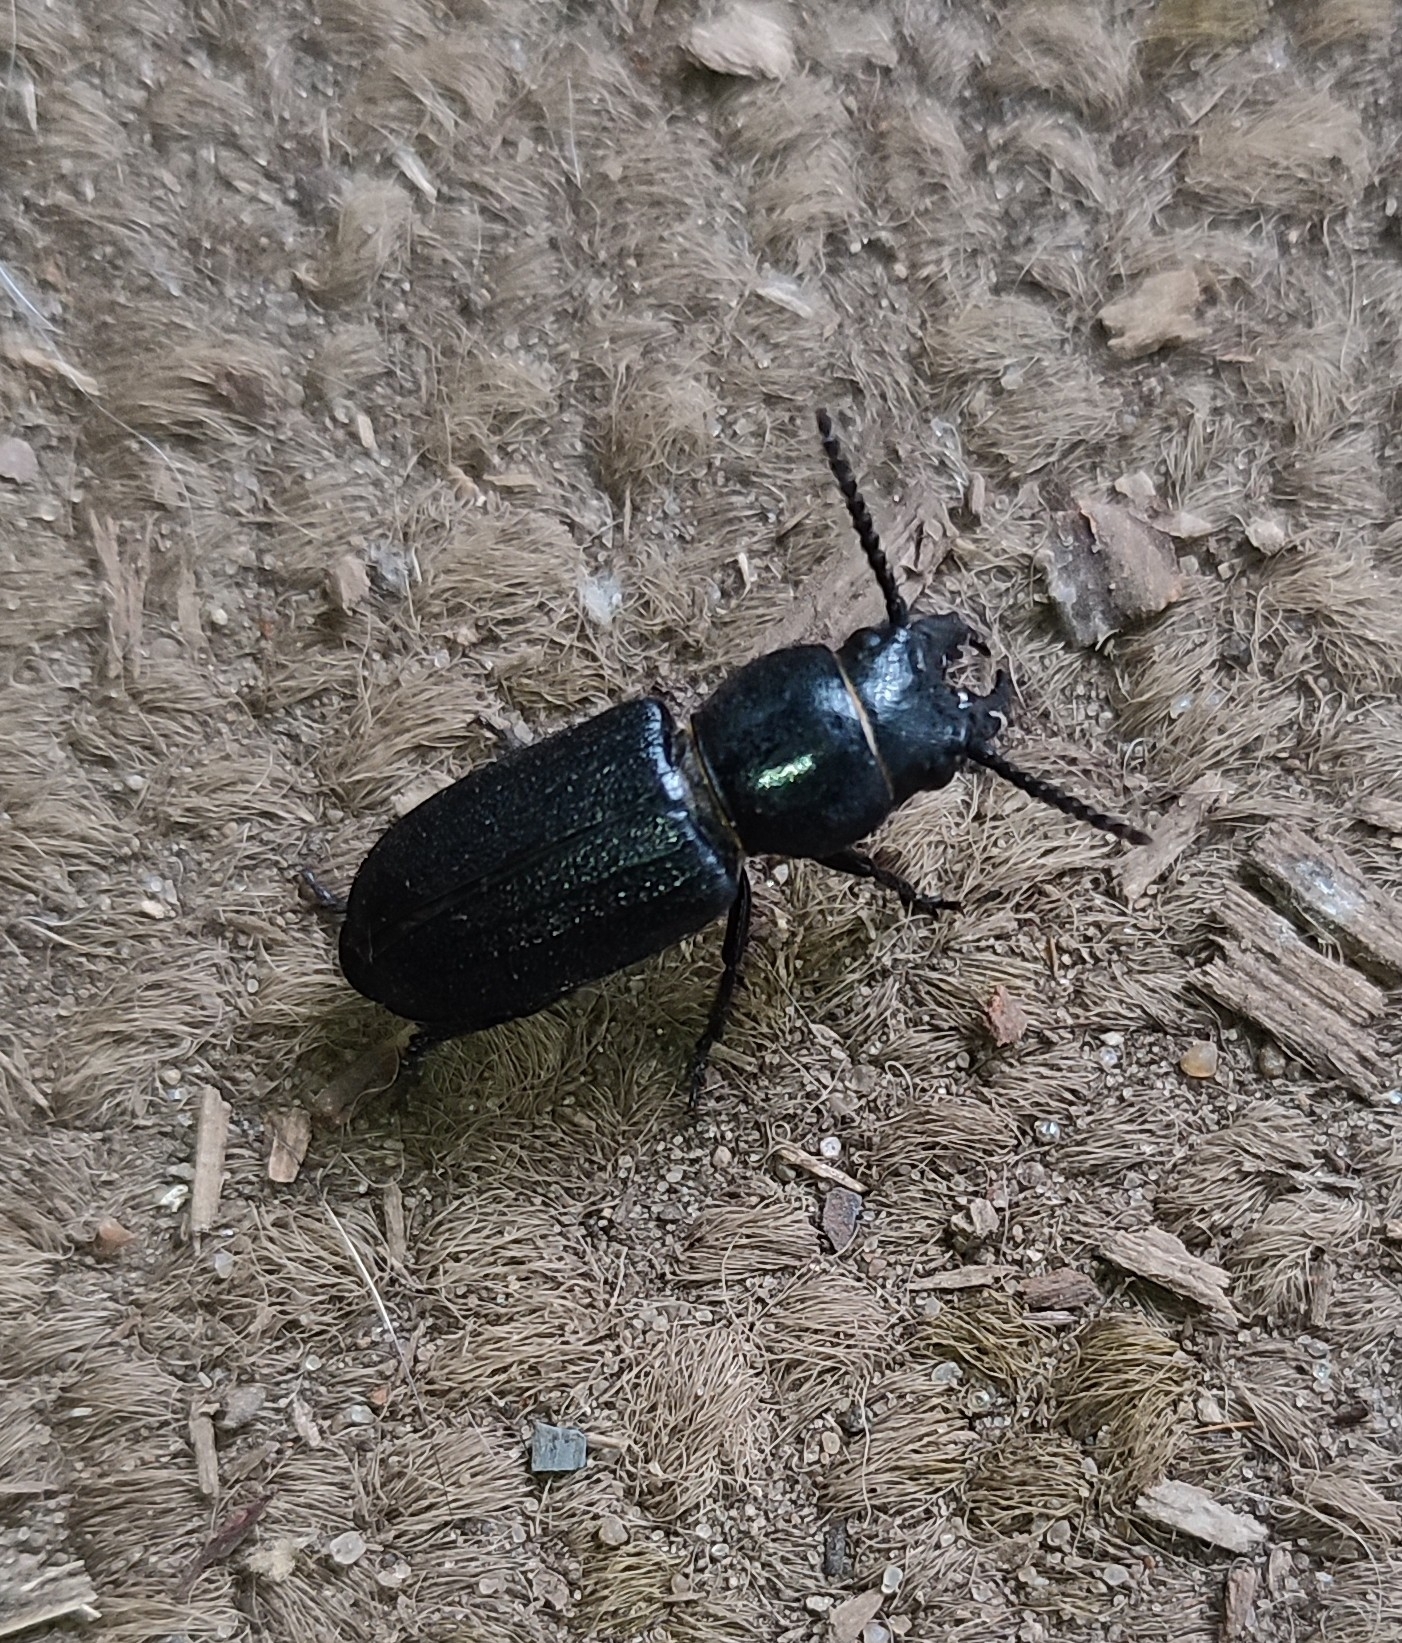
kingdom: Animalia
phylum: Arthropoda
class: Insecta
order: Coleoptera
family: Cerambycidae
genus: Spondylis
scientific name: Spondylis buprestoides
